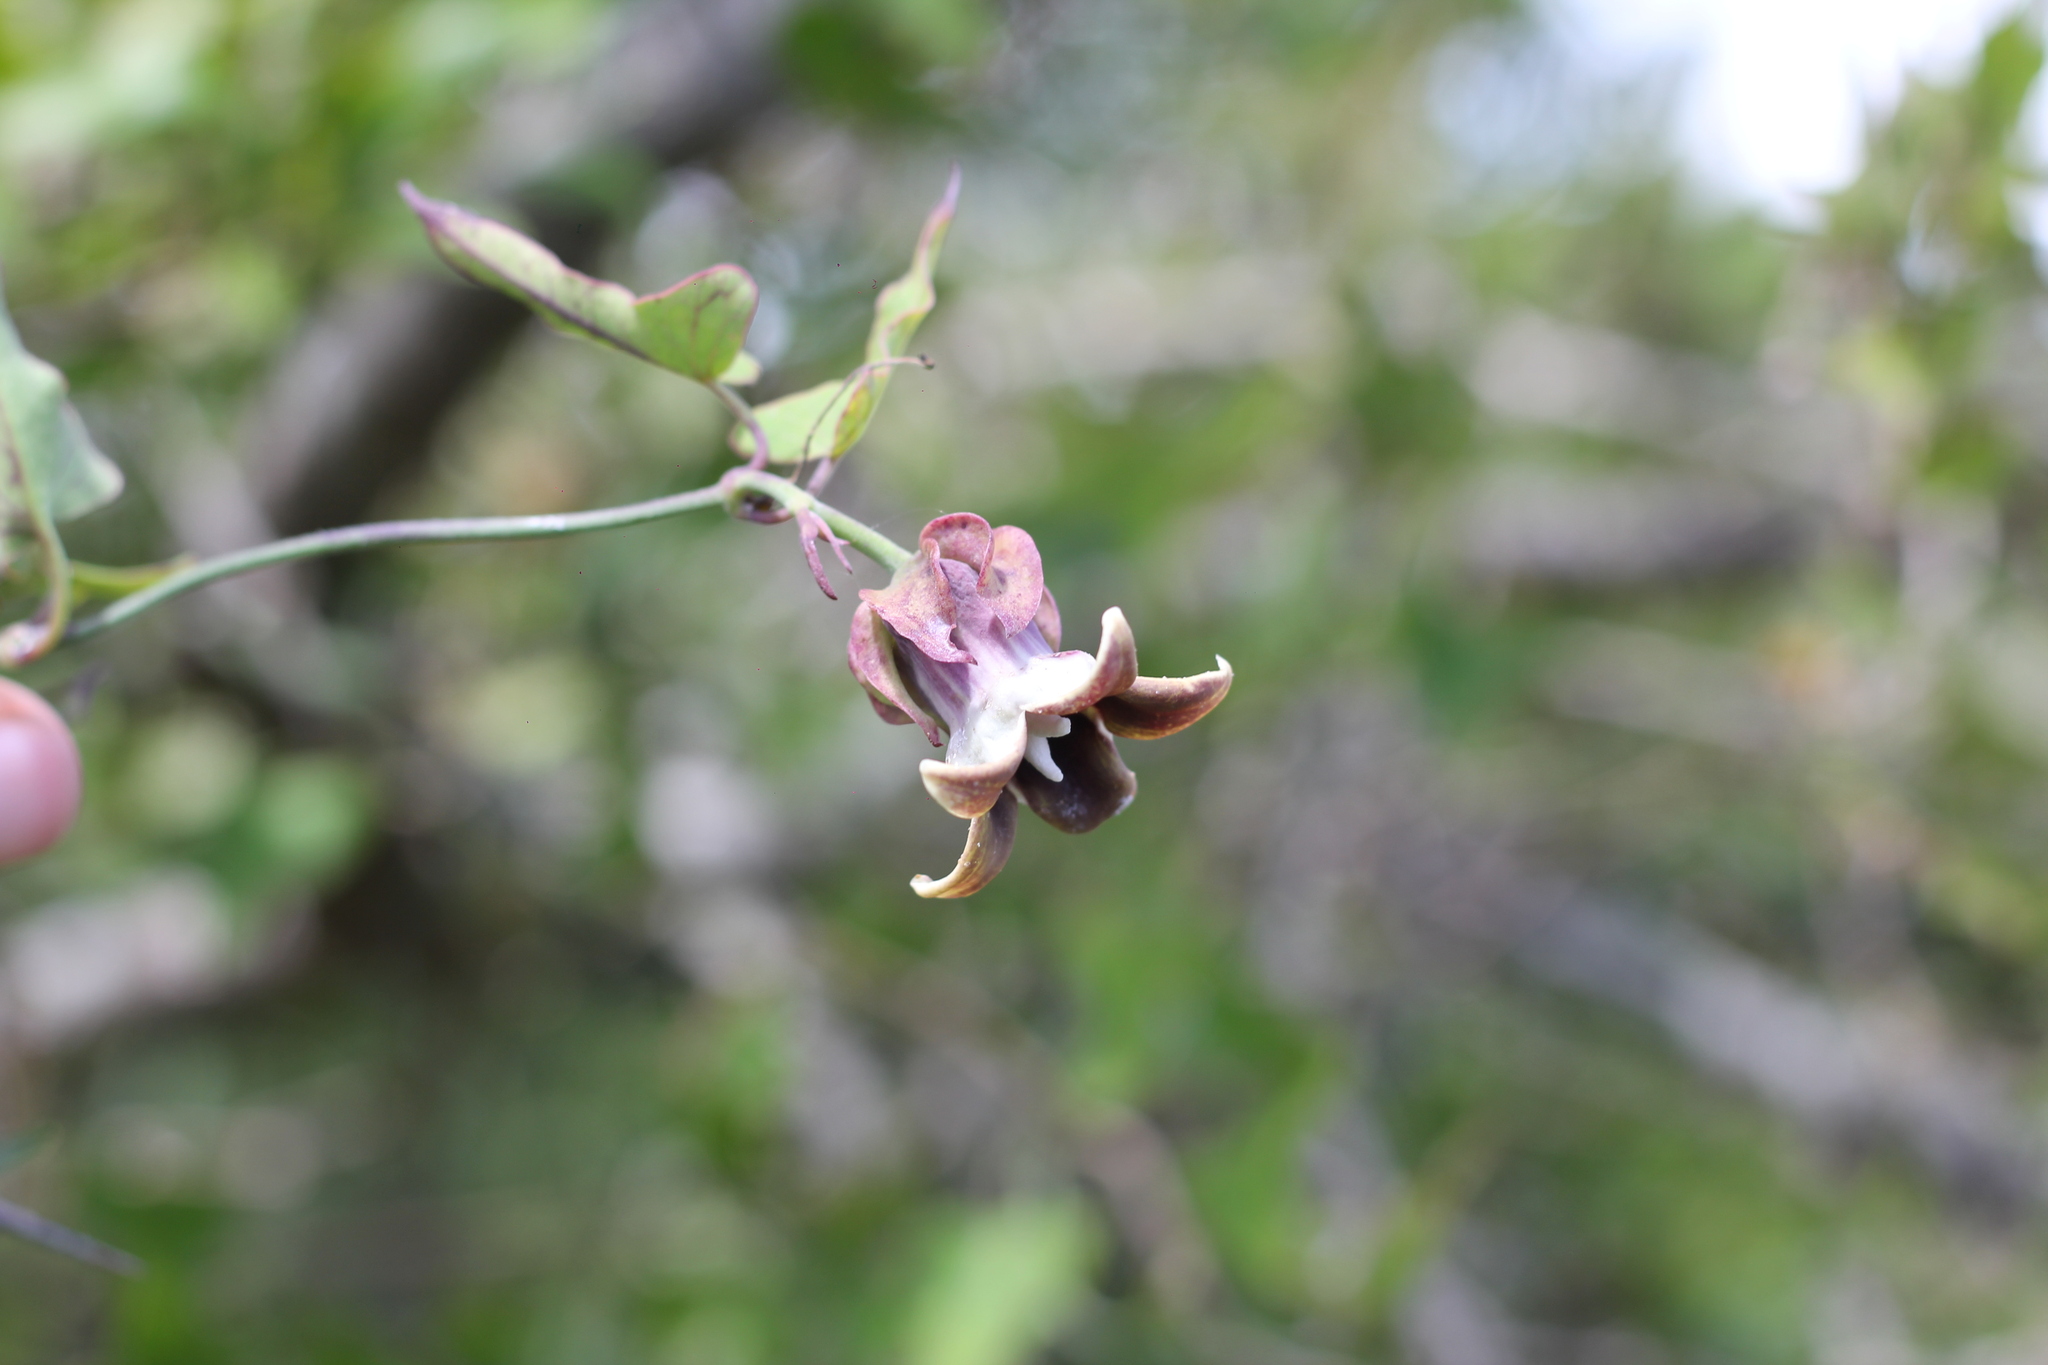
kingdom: Plantae
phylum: Tracheophyta
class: Magnoliopsida
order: Gentianales
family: Apocynaceae
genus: Araujia
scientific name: Araujia megapotamica
